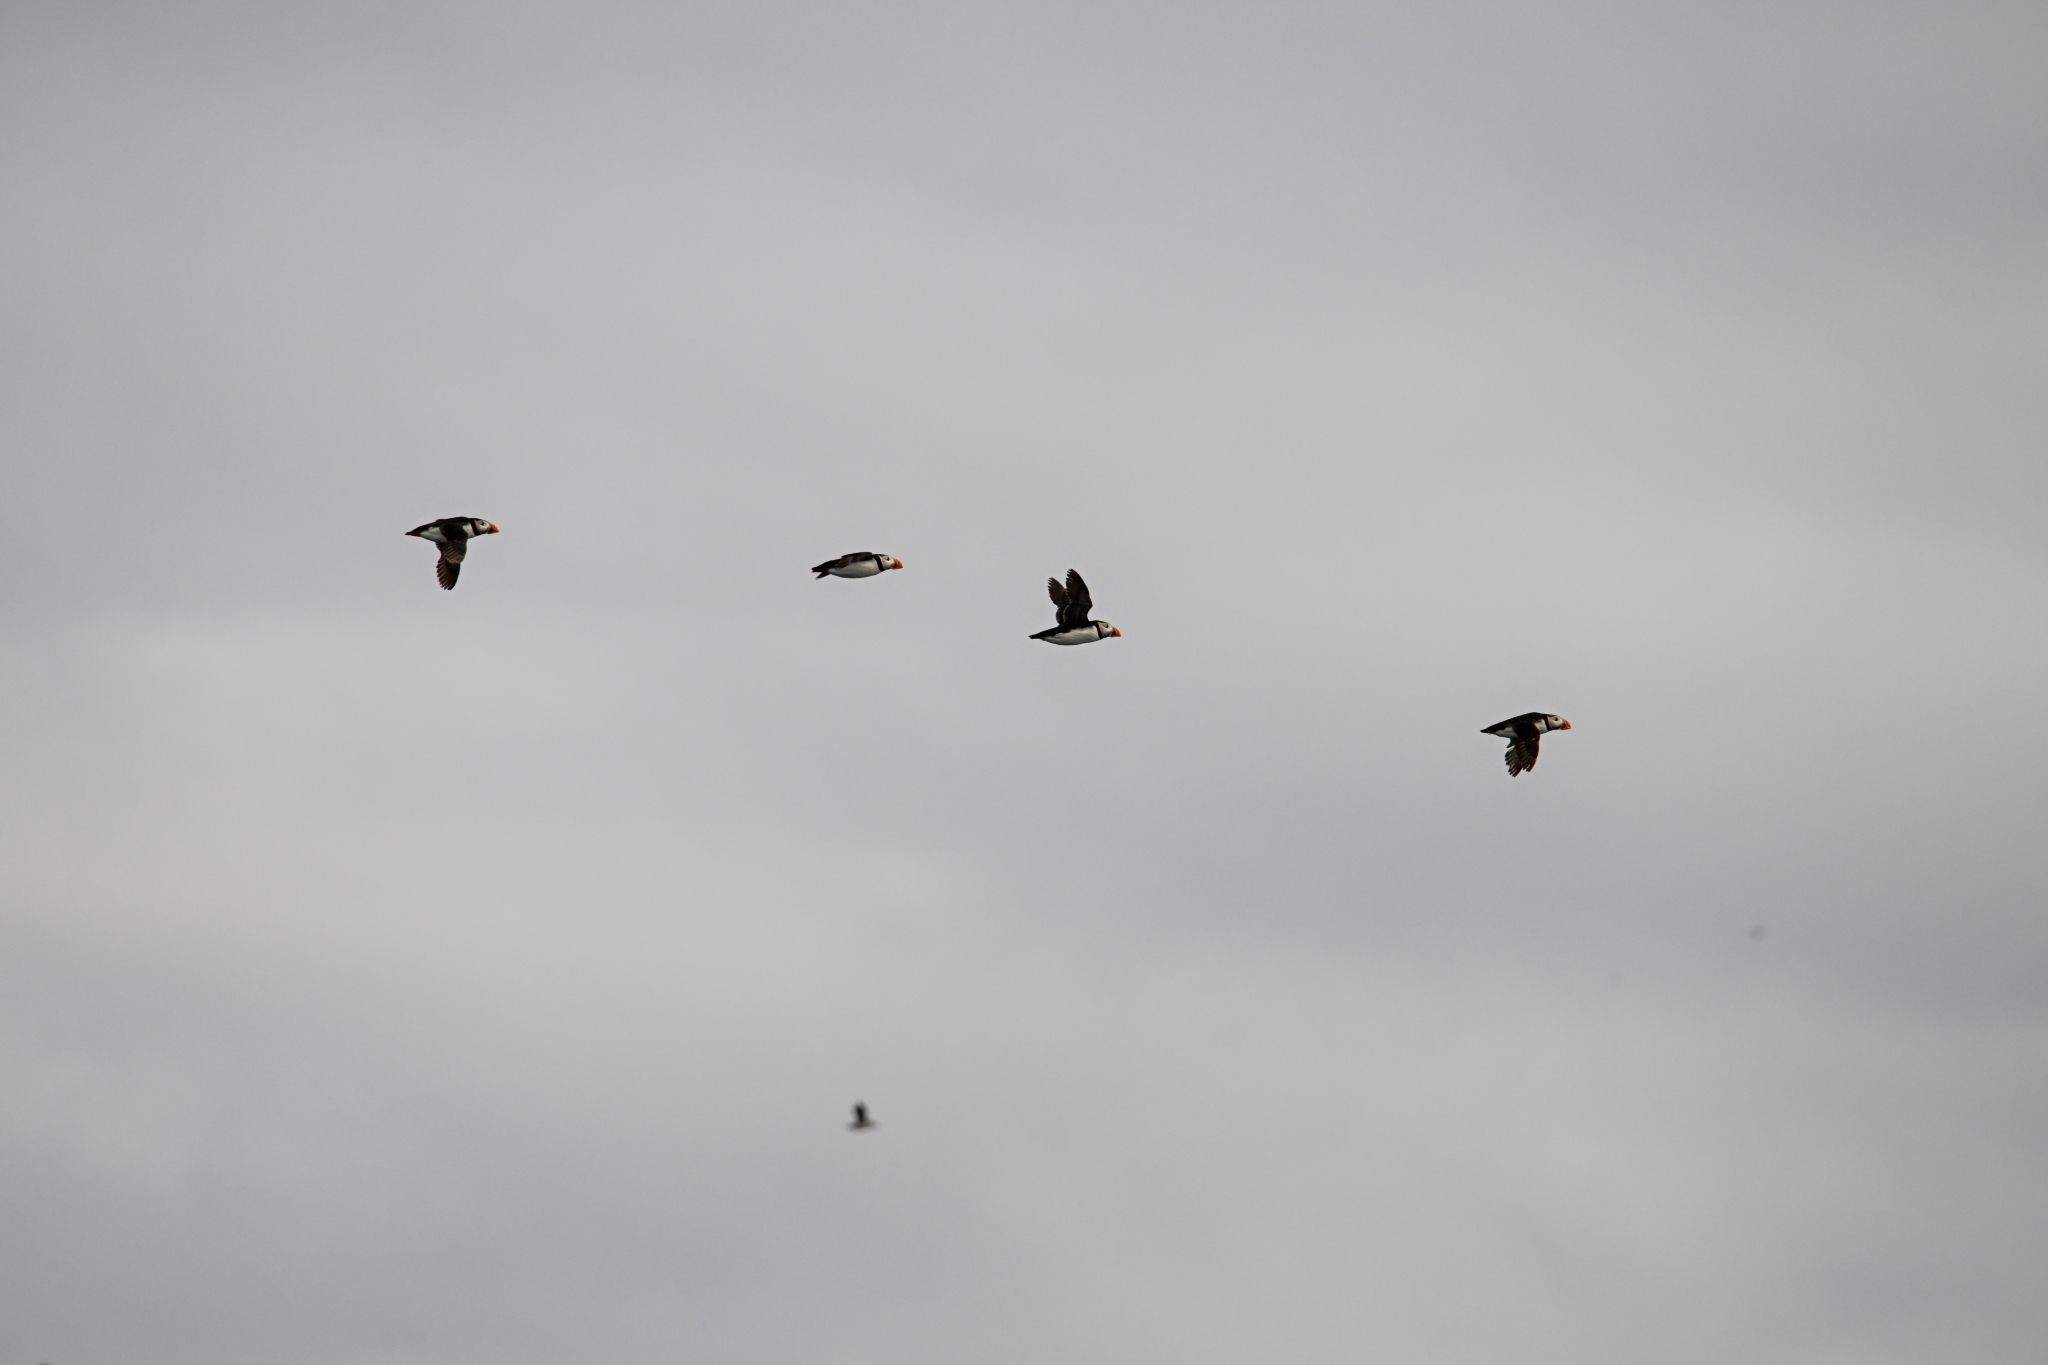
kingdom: Animalia
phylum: Chordata
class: Aves
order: Charadriiformes
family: Alcidae
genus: Fratercula
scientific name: Fratercula arctica
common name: Atlantic puffin
